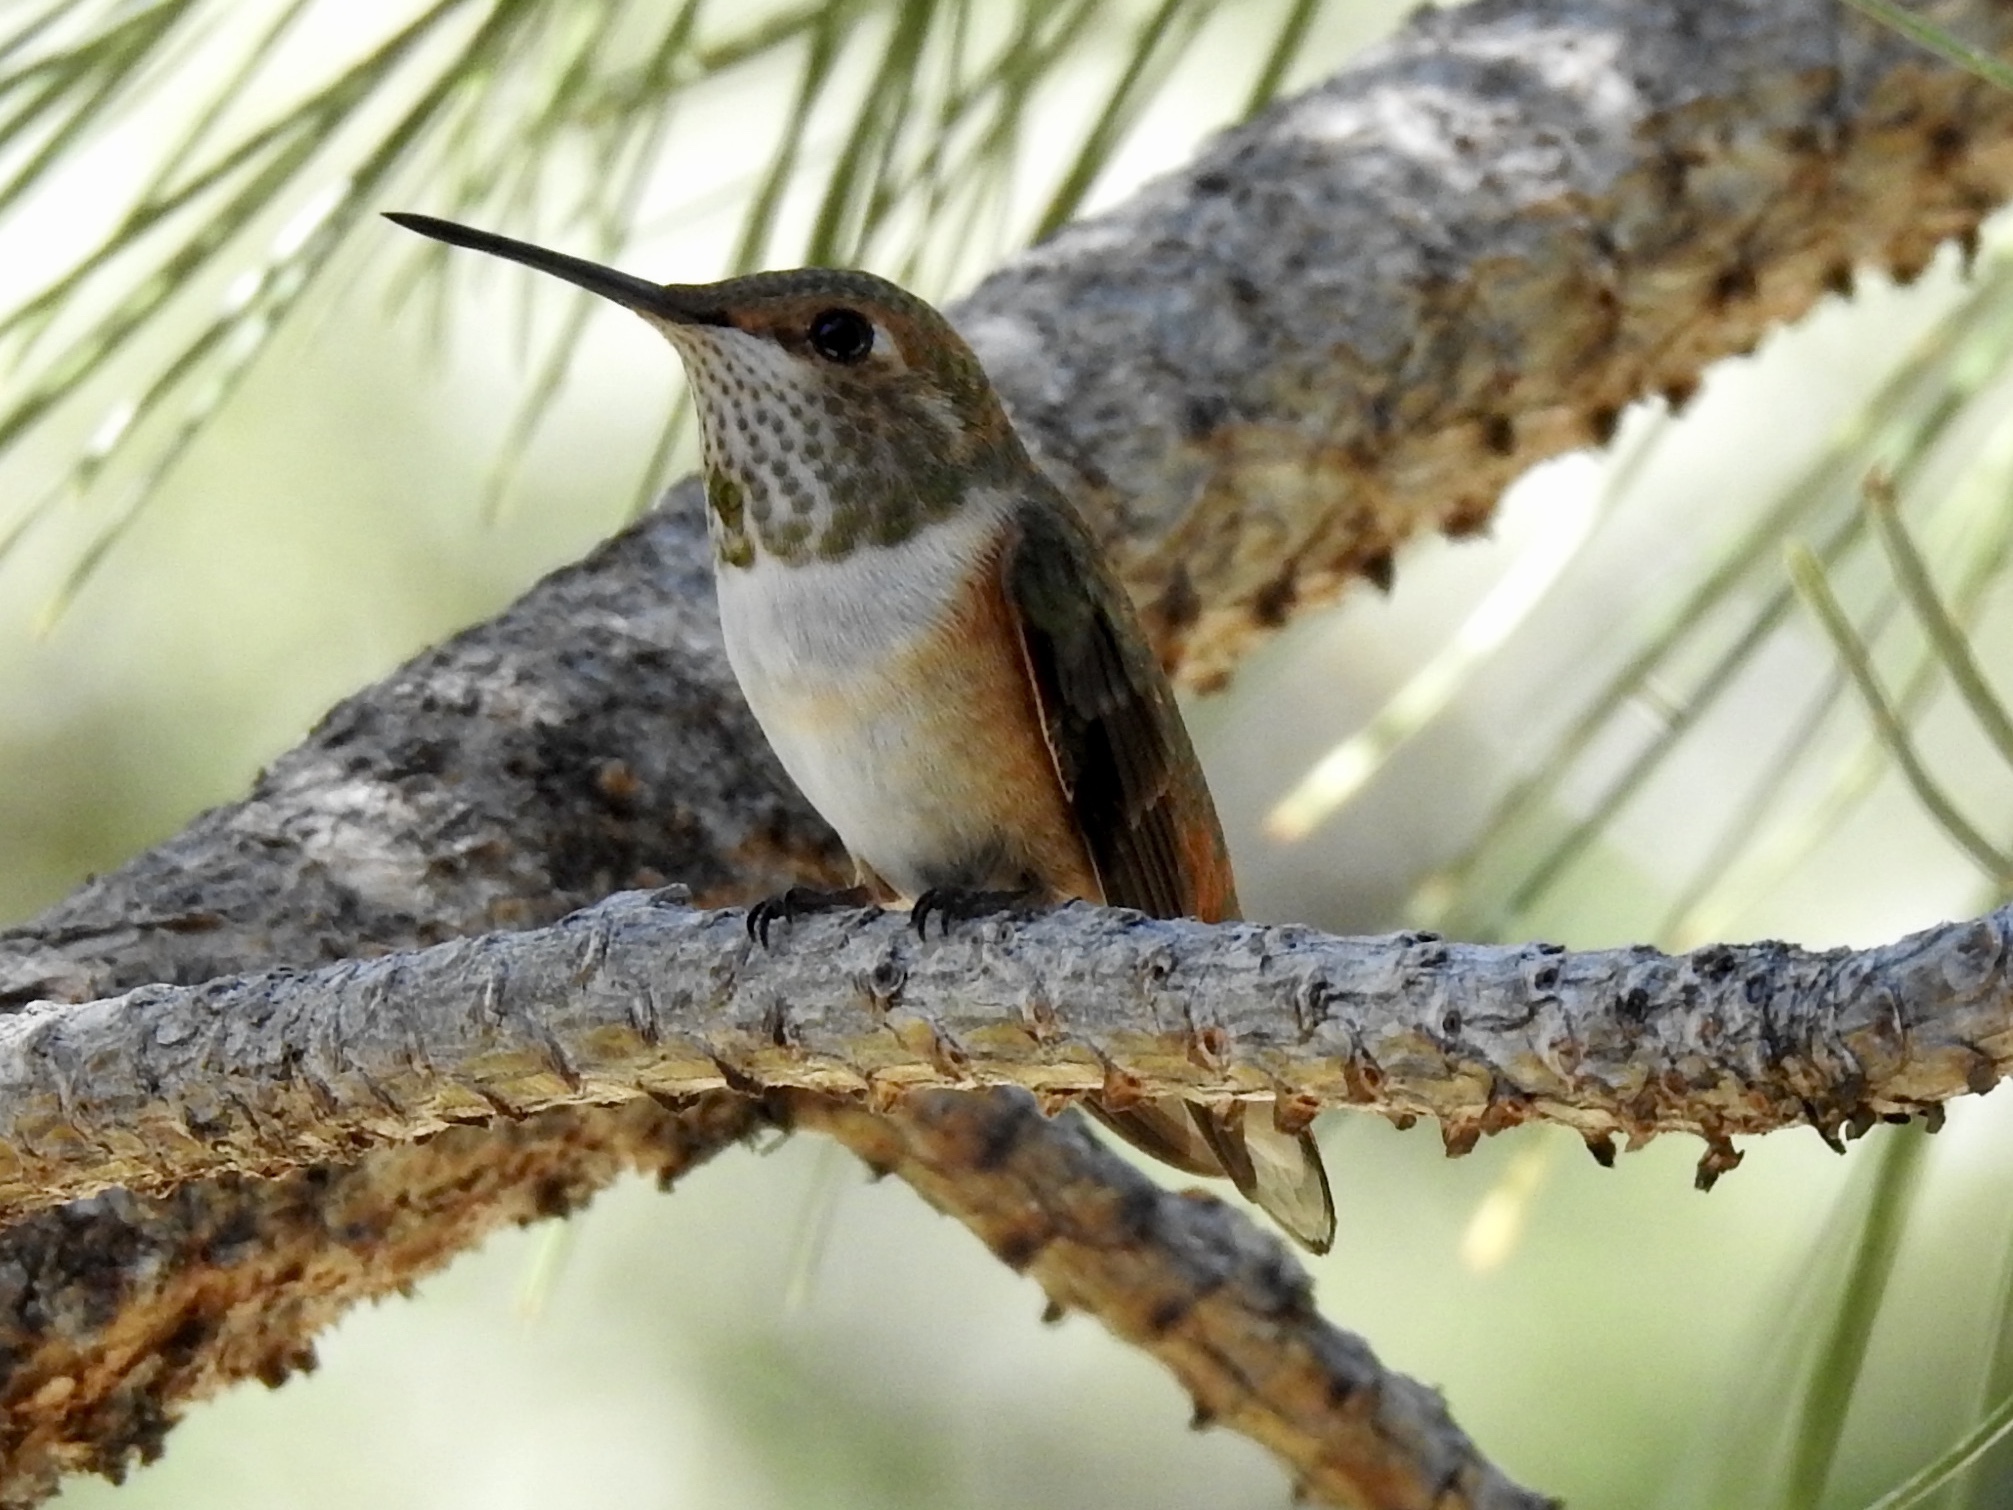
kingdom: Animalia
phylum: Chordata
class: Aves
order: Apodiformes
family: Trochilidae
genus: Selasphorus
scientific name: Selasphorus rufus
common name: Rufous hummingbird
